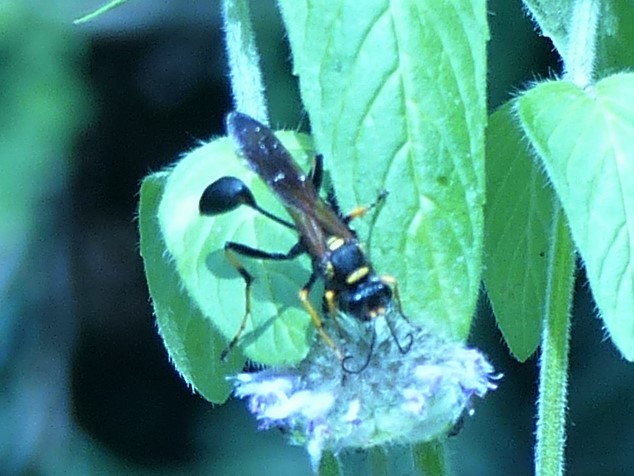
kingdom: Animalia
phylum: Arthropoda
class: Insecta
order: Hymenoptera
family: Sphecidae
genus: Sceliphron
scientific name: Sceliphron caementarium
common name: Mud dauber
